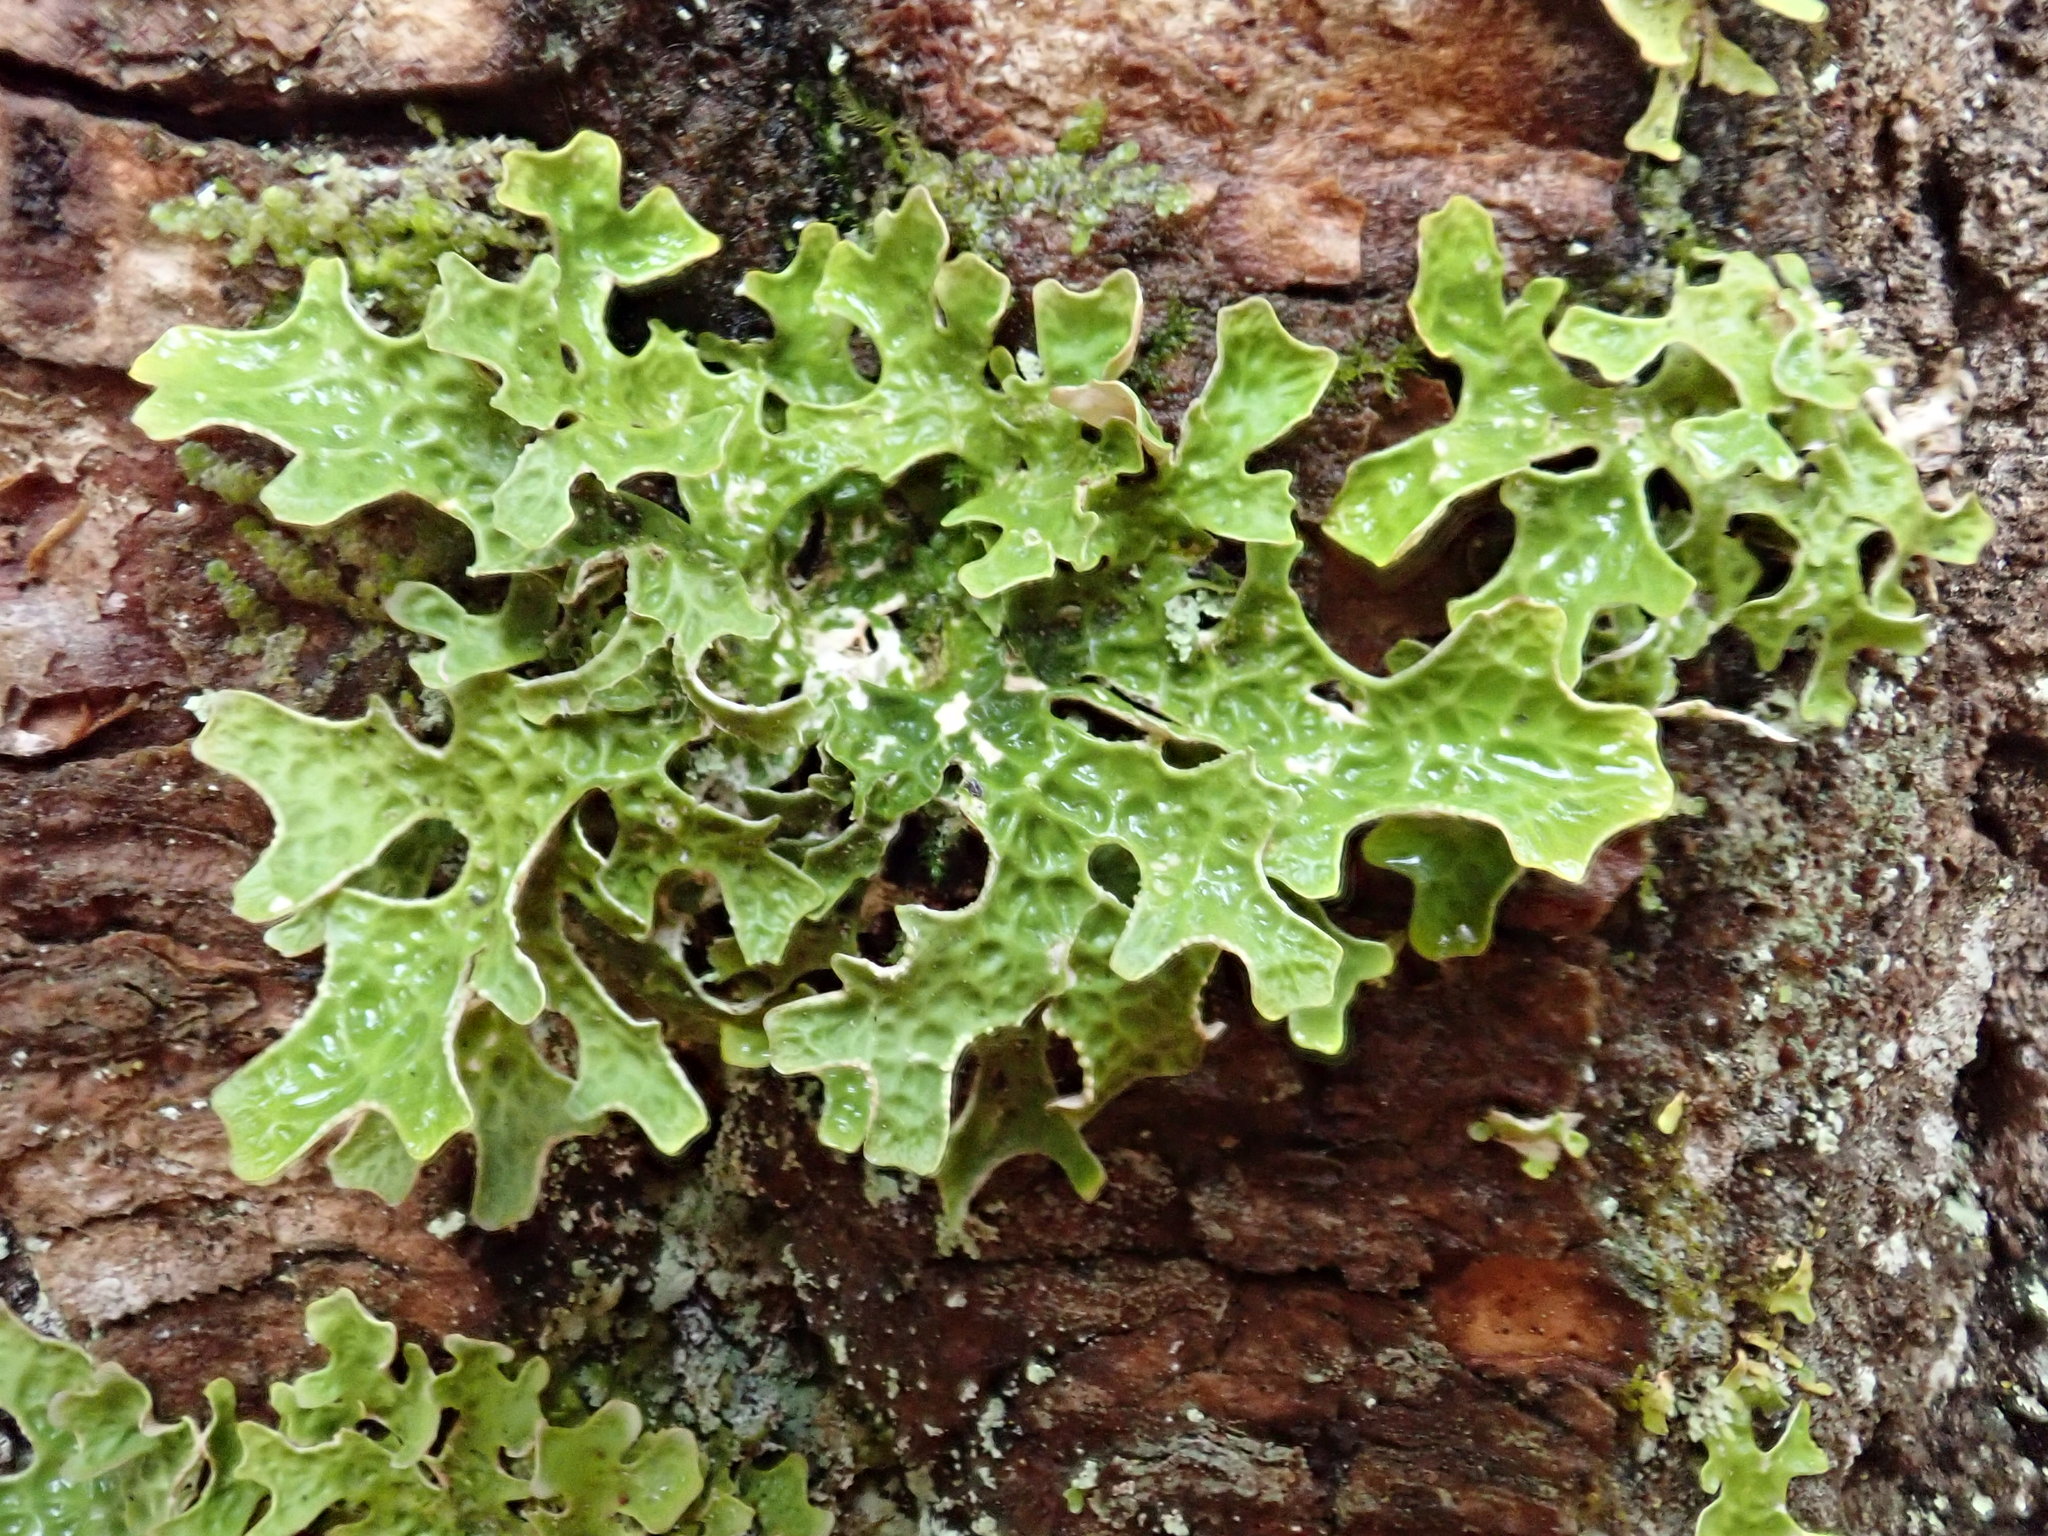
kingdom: Fungi
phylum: Ascomycota
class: Lecanoromycetes
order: Peltigerales
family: Lobariaceae
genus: Lobaria
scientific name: Lobaria pulmonaria
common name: Lungwort
